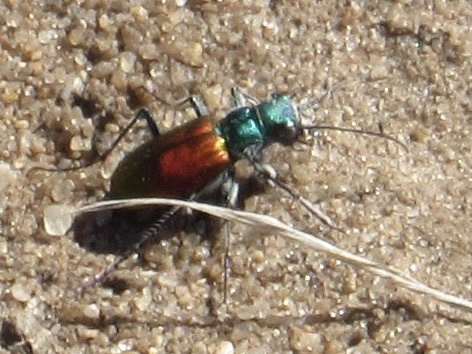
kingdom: Animalia
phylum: Arthropoda
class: Insecta
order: Coleoptera
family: Carabidae
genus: Cicindela
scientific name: Cicindela scutellaris
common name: Festive tiger beetle
